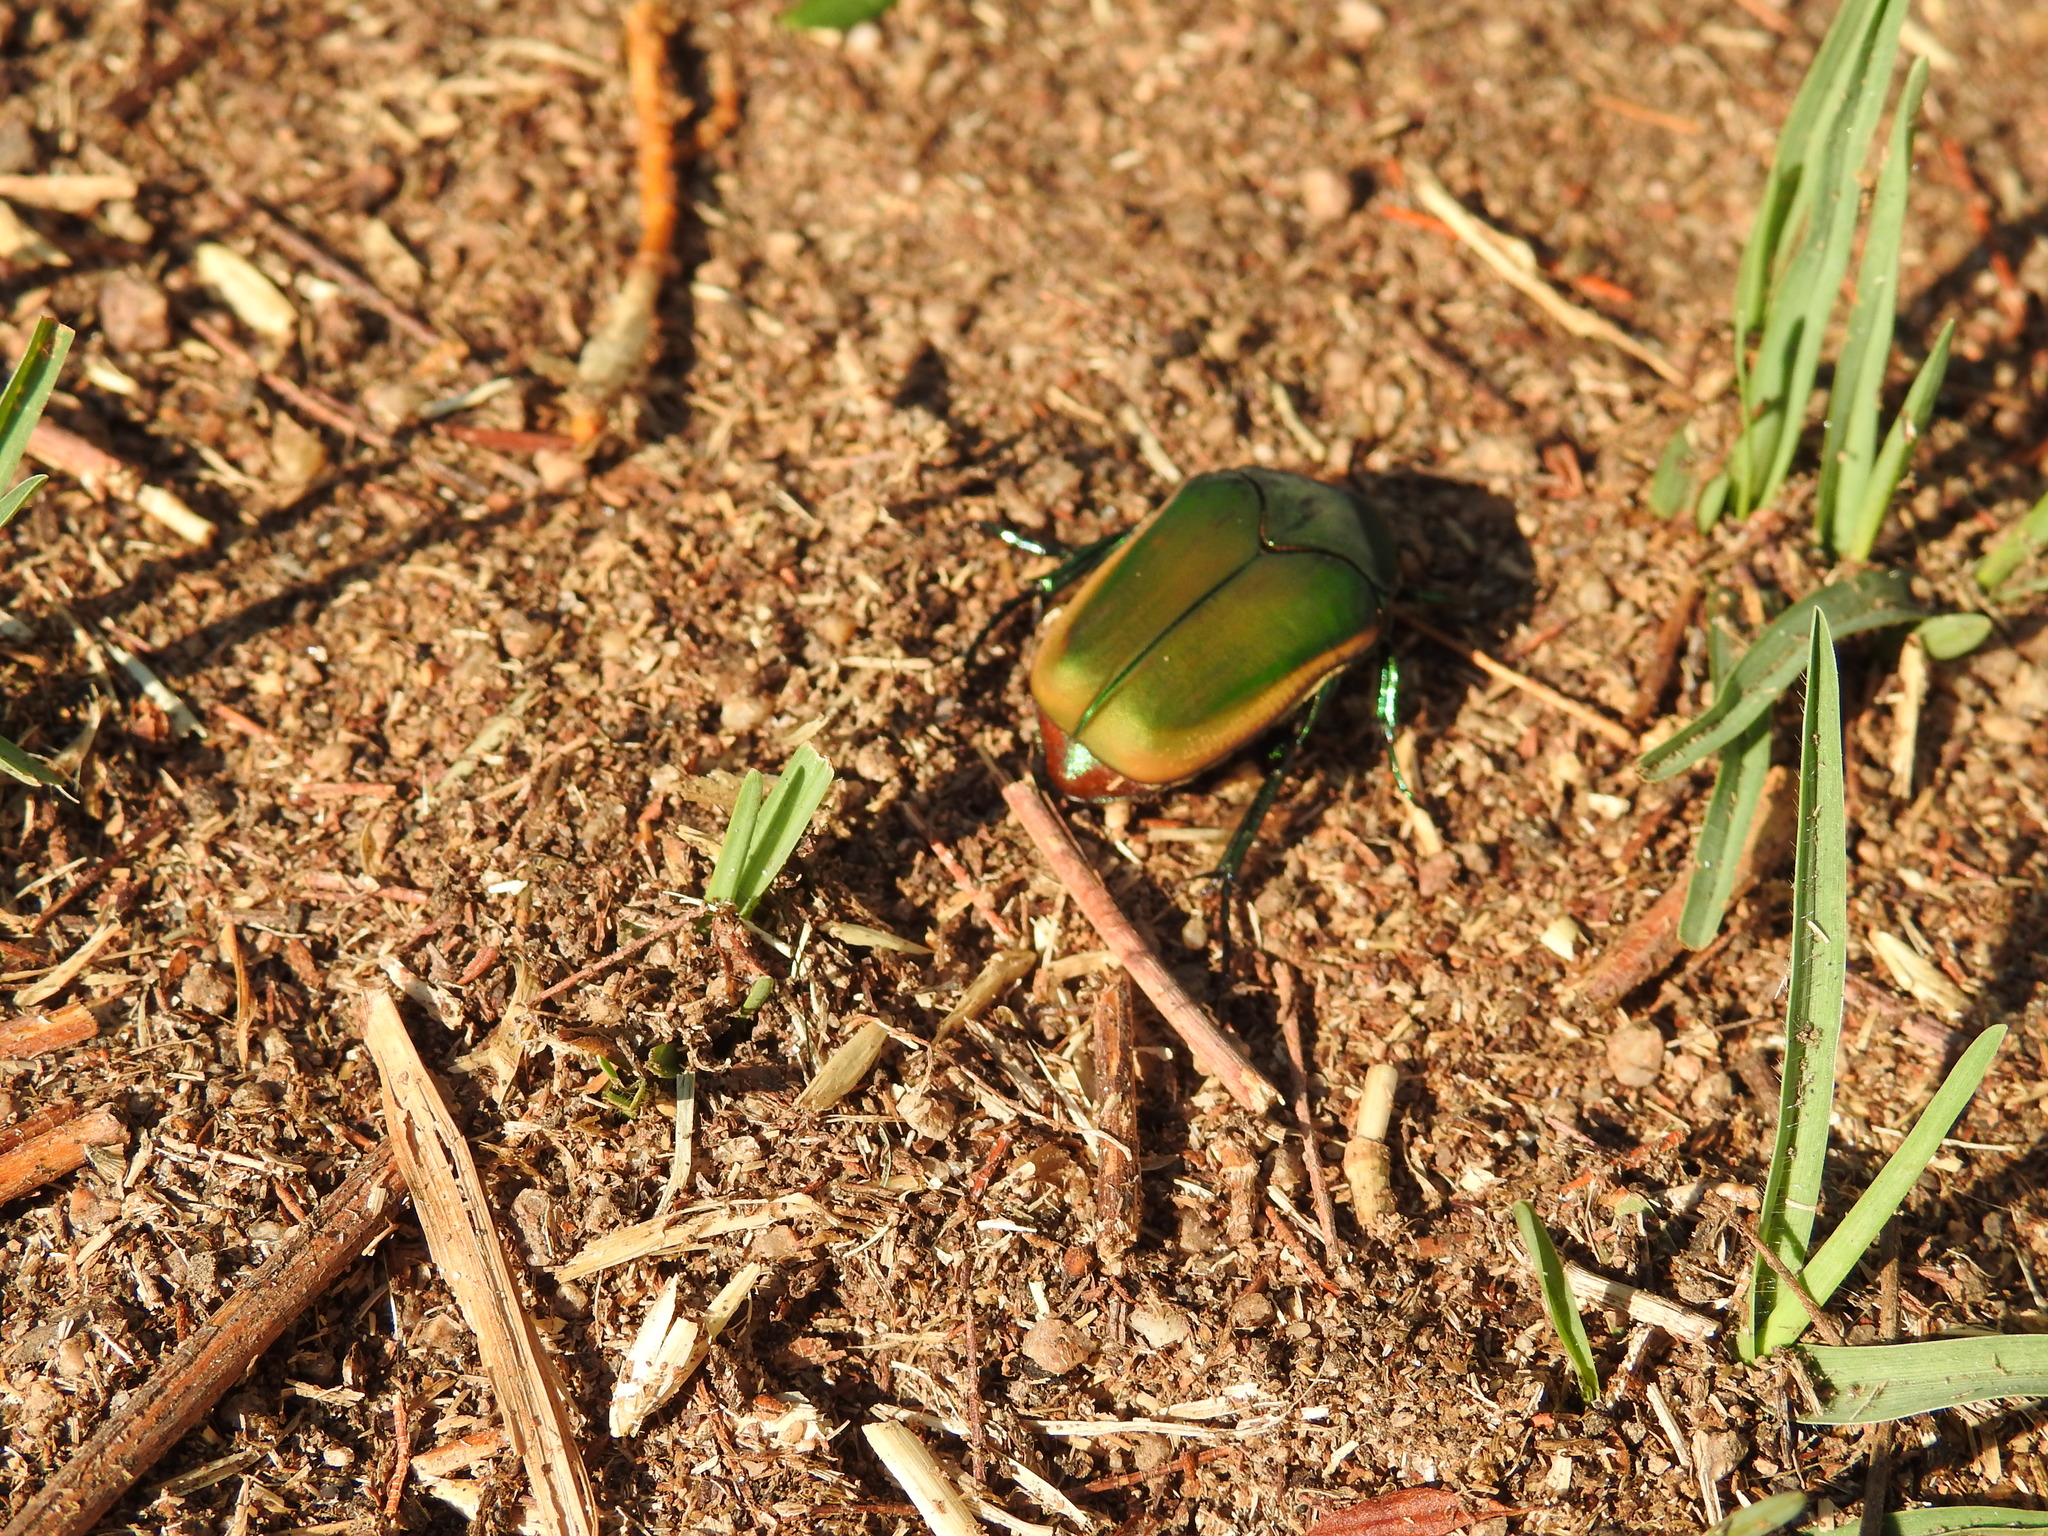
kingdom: Animalia
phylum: Arthropoda
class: Insecta
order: Coleoptera
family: Scarabaeidae
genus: Cotinis
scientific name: Cotinis mutabilis
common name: Figeater beetle
